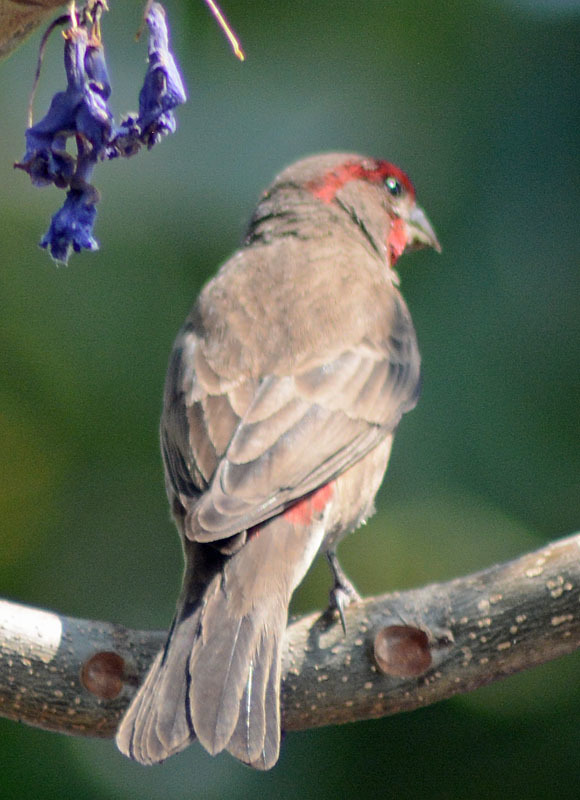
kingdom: Animalia
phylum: Chordata
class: Aves
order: Passeriformes
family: Fringillidae
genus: Haemorhous
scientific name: Haemorhous mexicanus
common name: House finch
